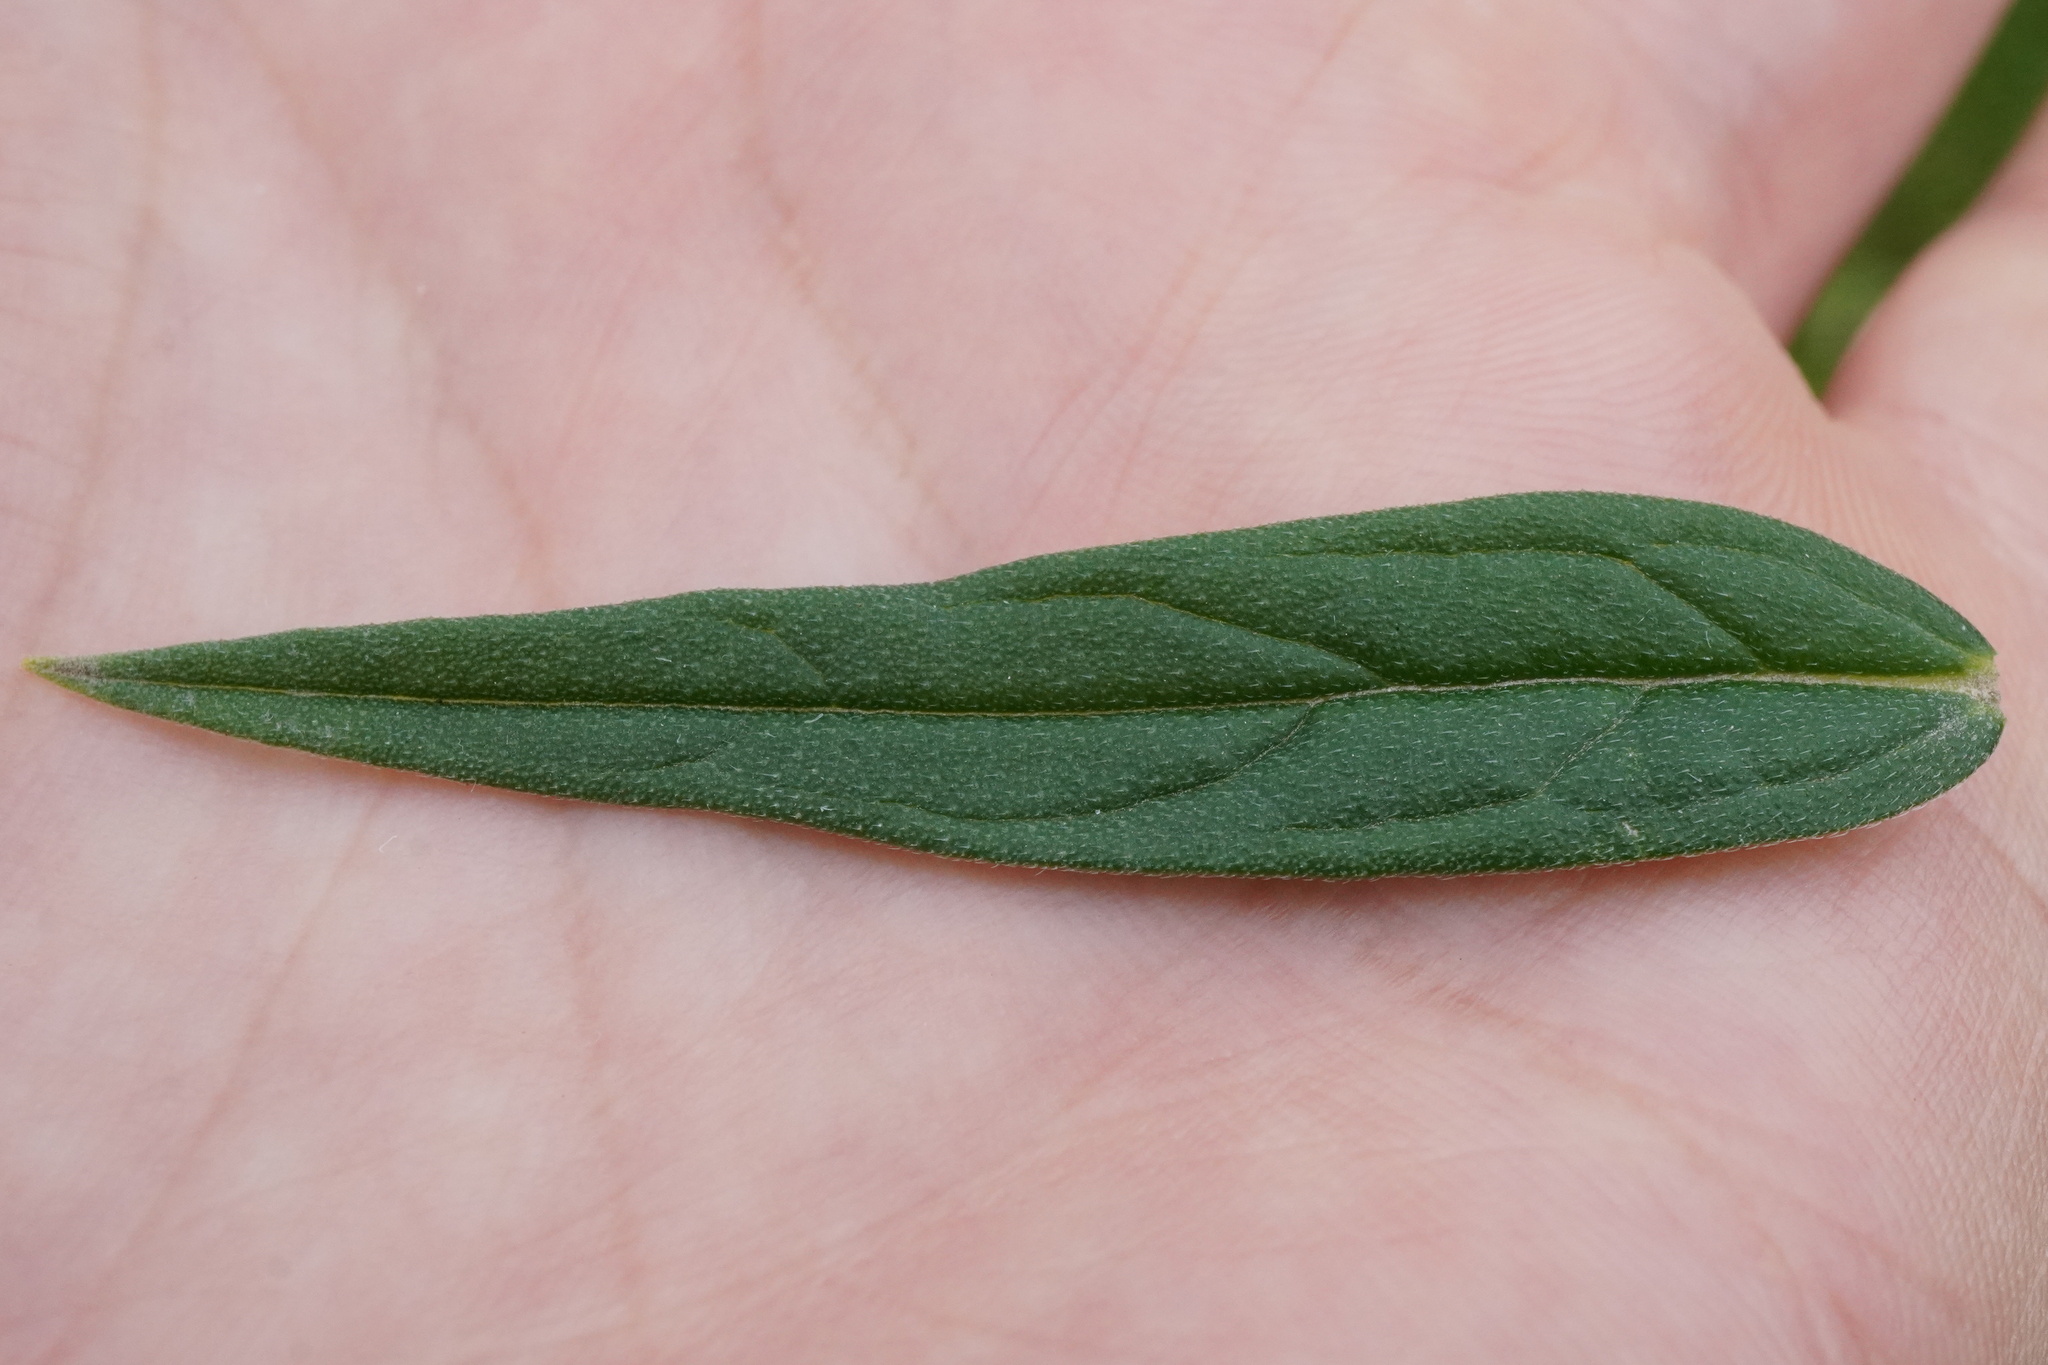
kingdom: Plantae
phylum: Tracheophyta
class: Magnoliopsida
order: Boraginales
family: Boraginaceae
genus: Lithospermum
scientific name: Lithospermum officinale
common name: Common gromwell
